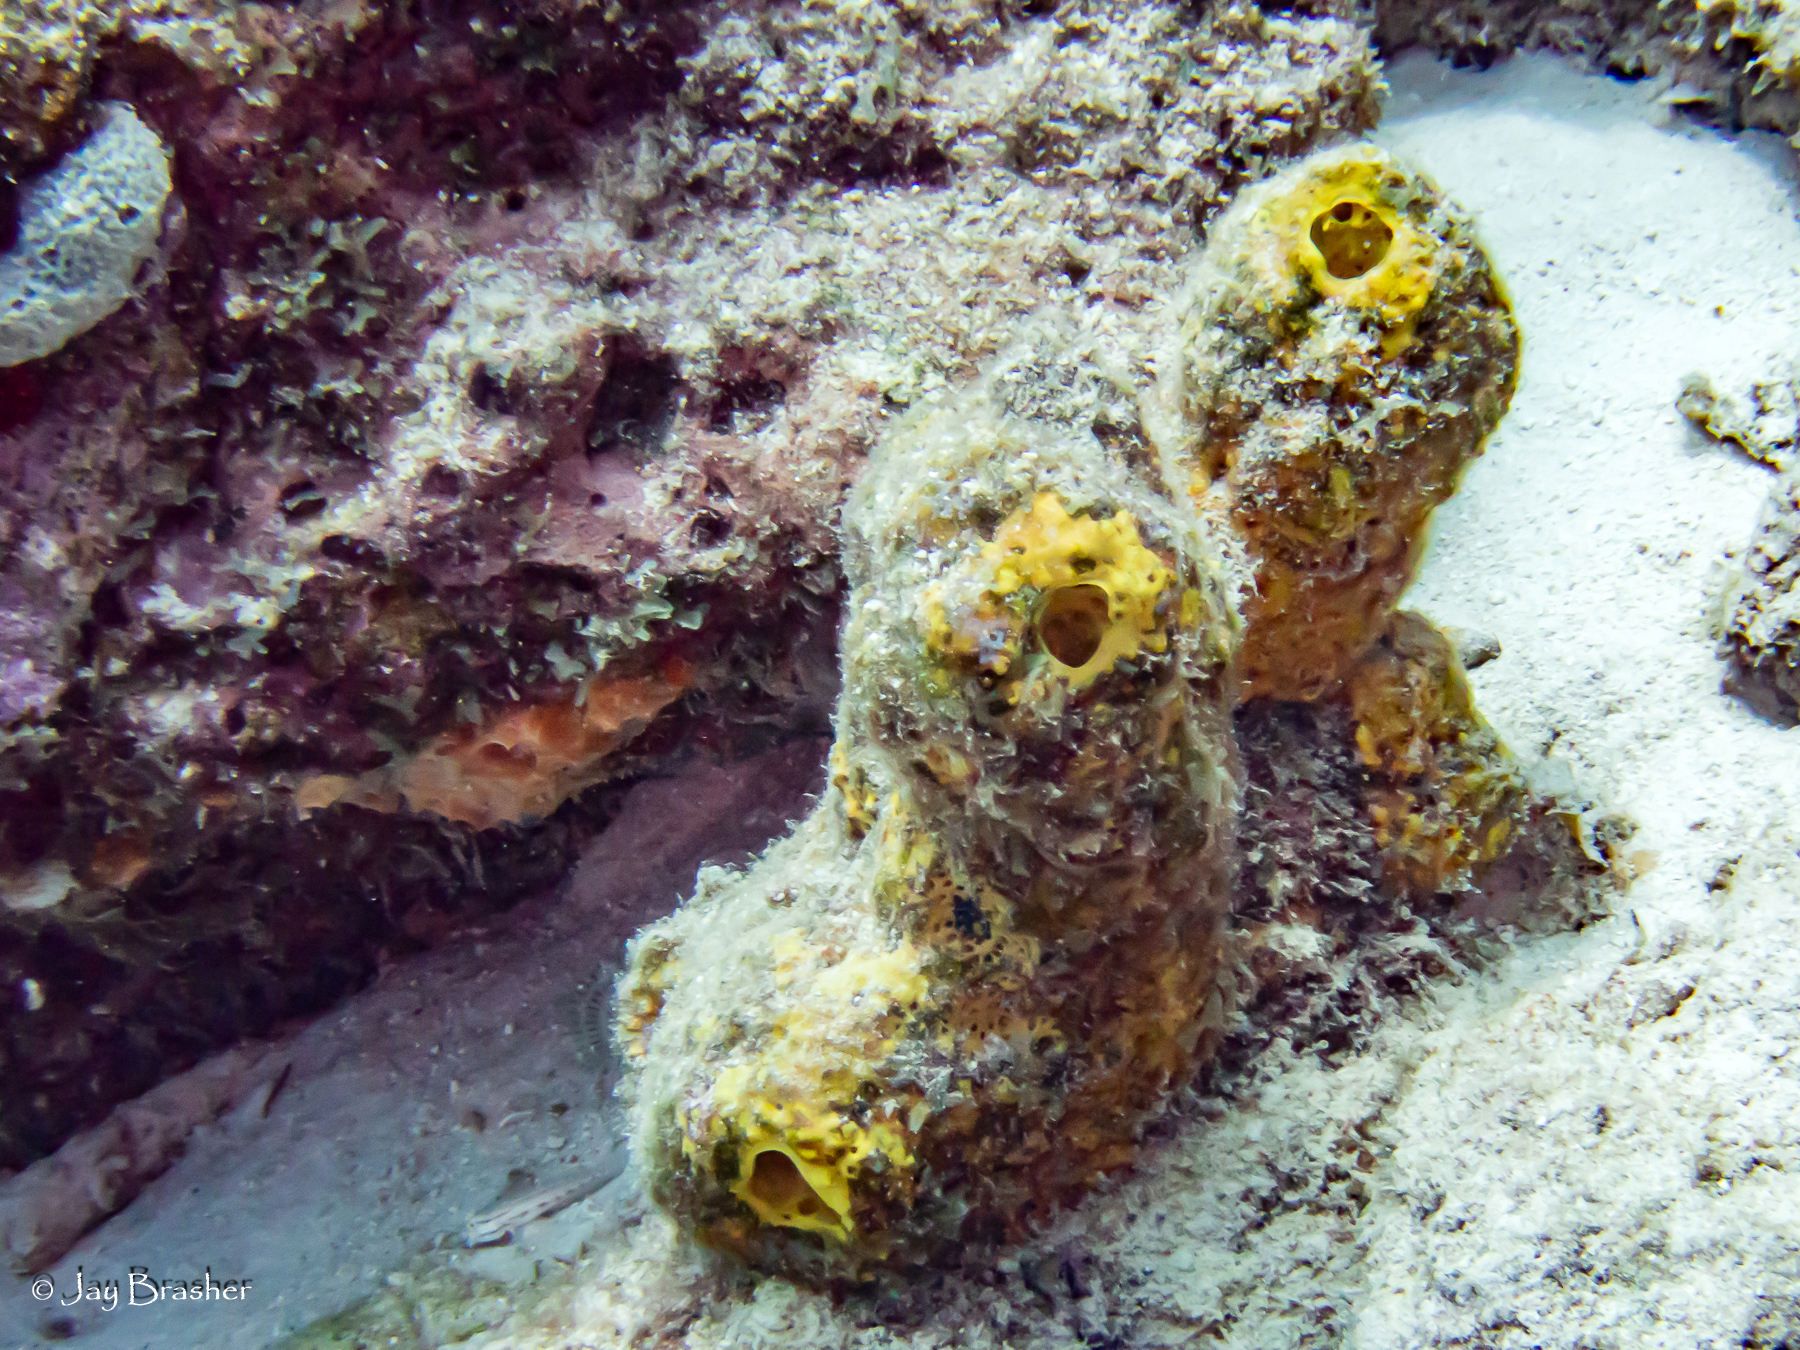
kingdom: Animalia
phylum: Porifera
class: Demospongiae
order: Verongiida
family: Aplysinidae
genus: Aiolochroia
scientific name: Aiolochroia crassa
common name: Branching tube sponge
